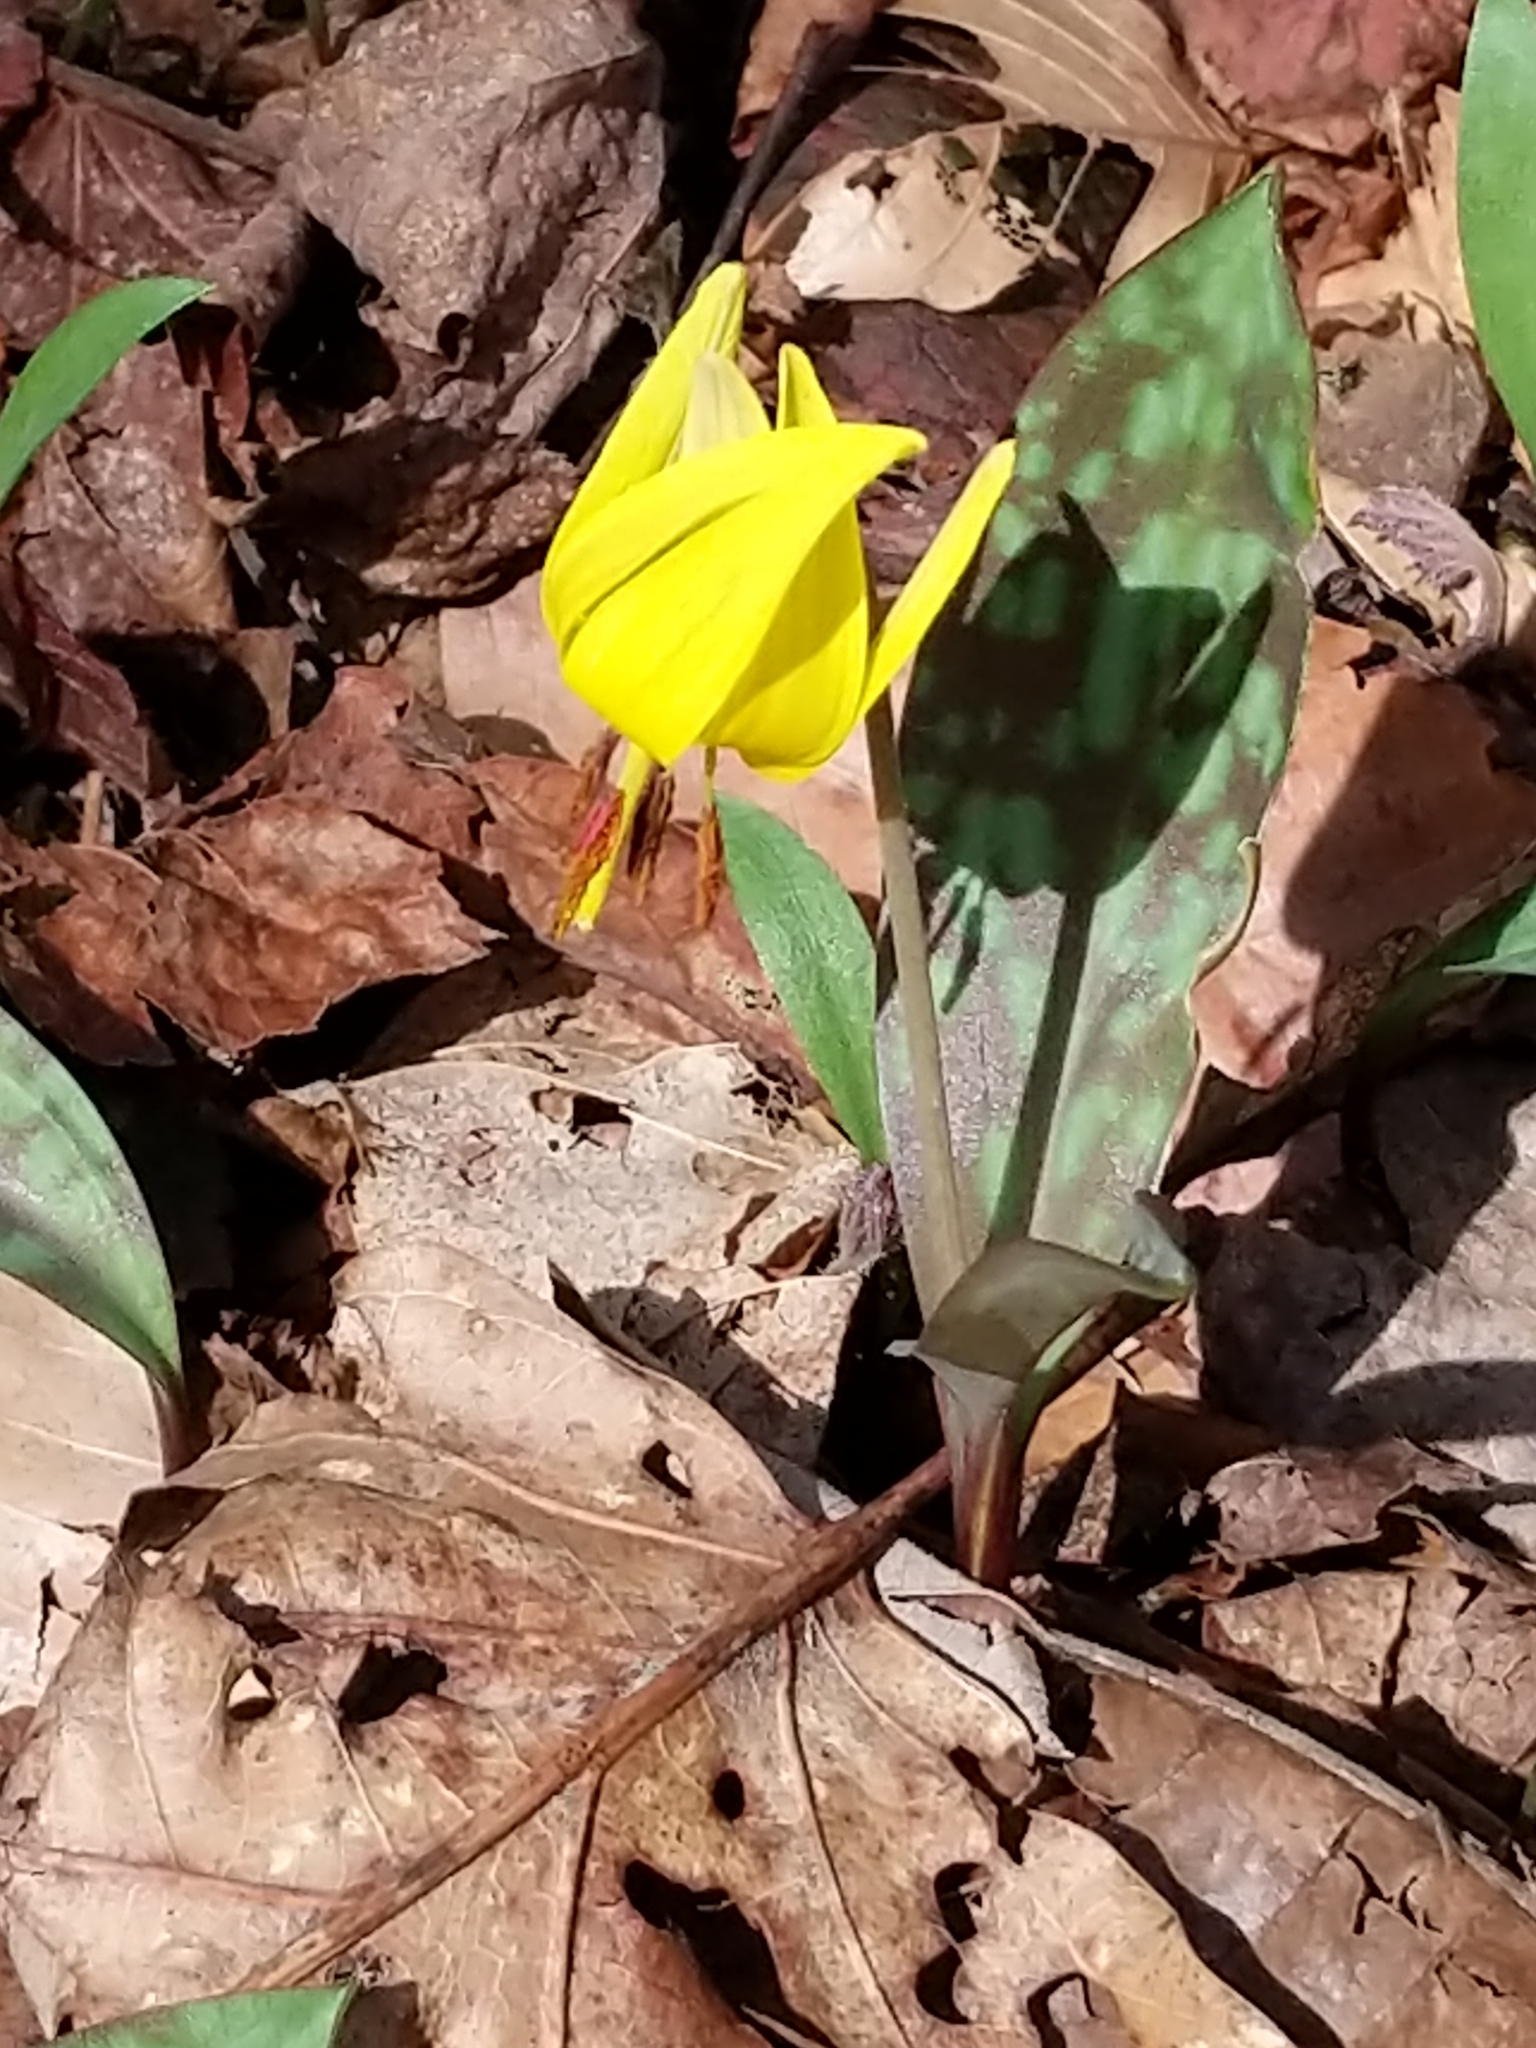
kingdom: Plantae
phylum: Tracheophyta
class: Liliopsida
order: Liliales
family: Liliaceae
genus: Erythronium
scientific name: Erythronium americanum
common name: Yellow adder's-tongue
